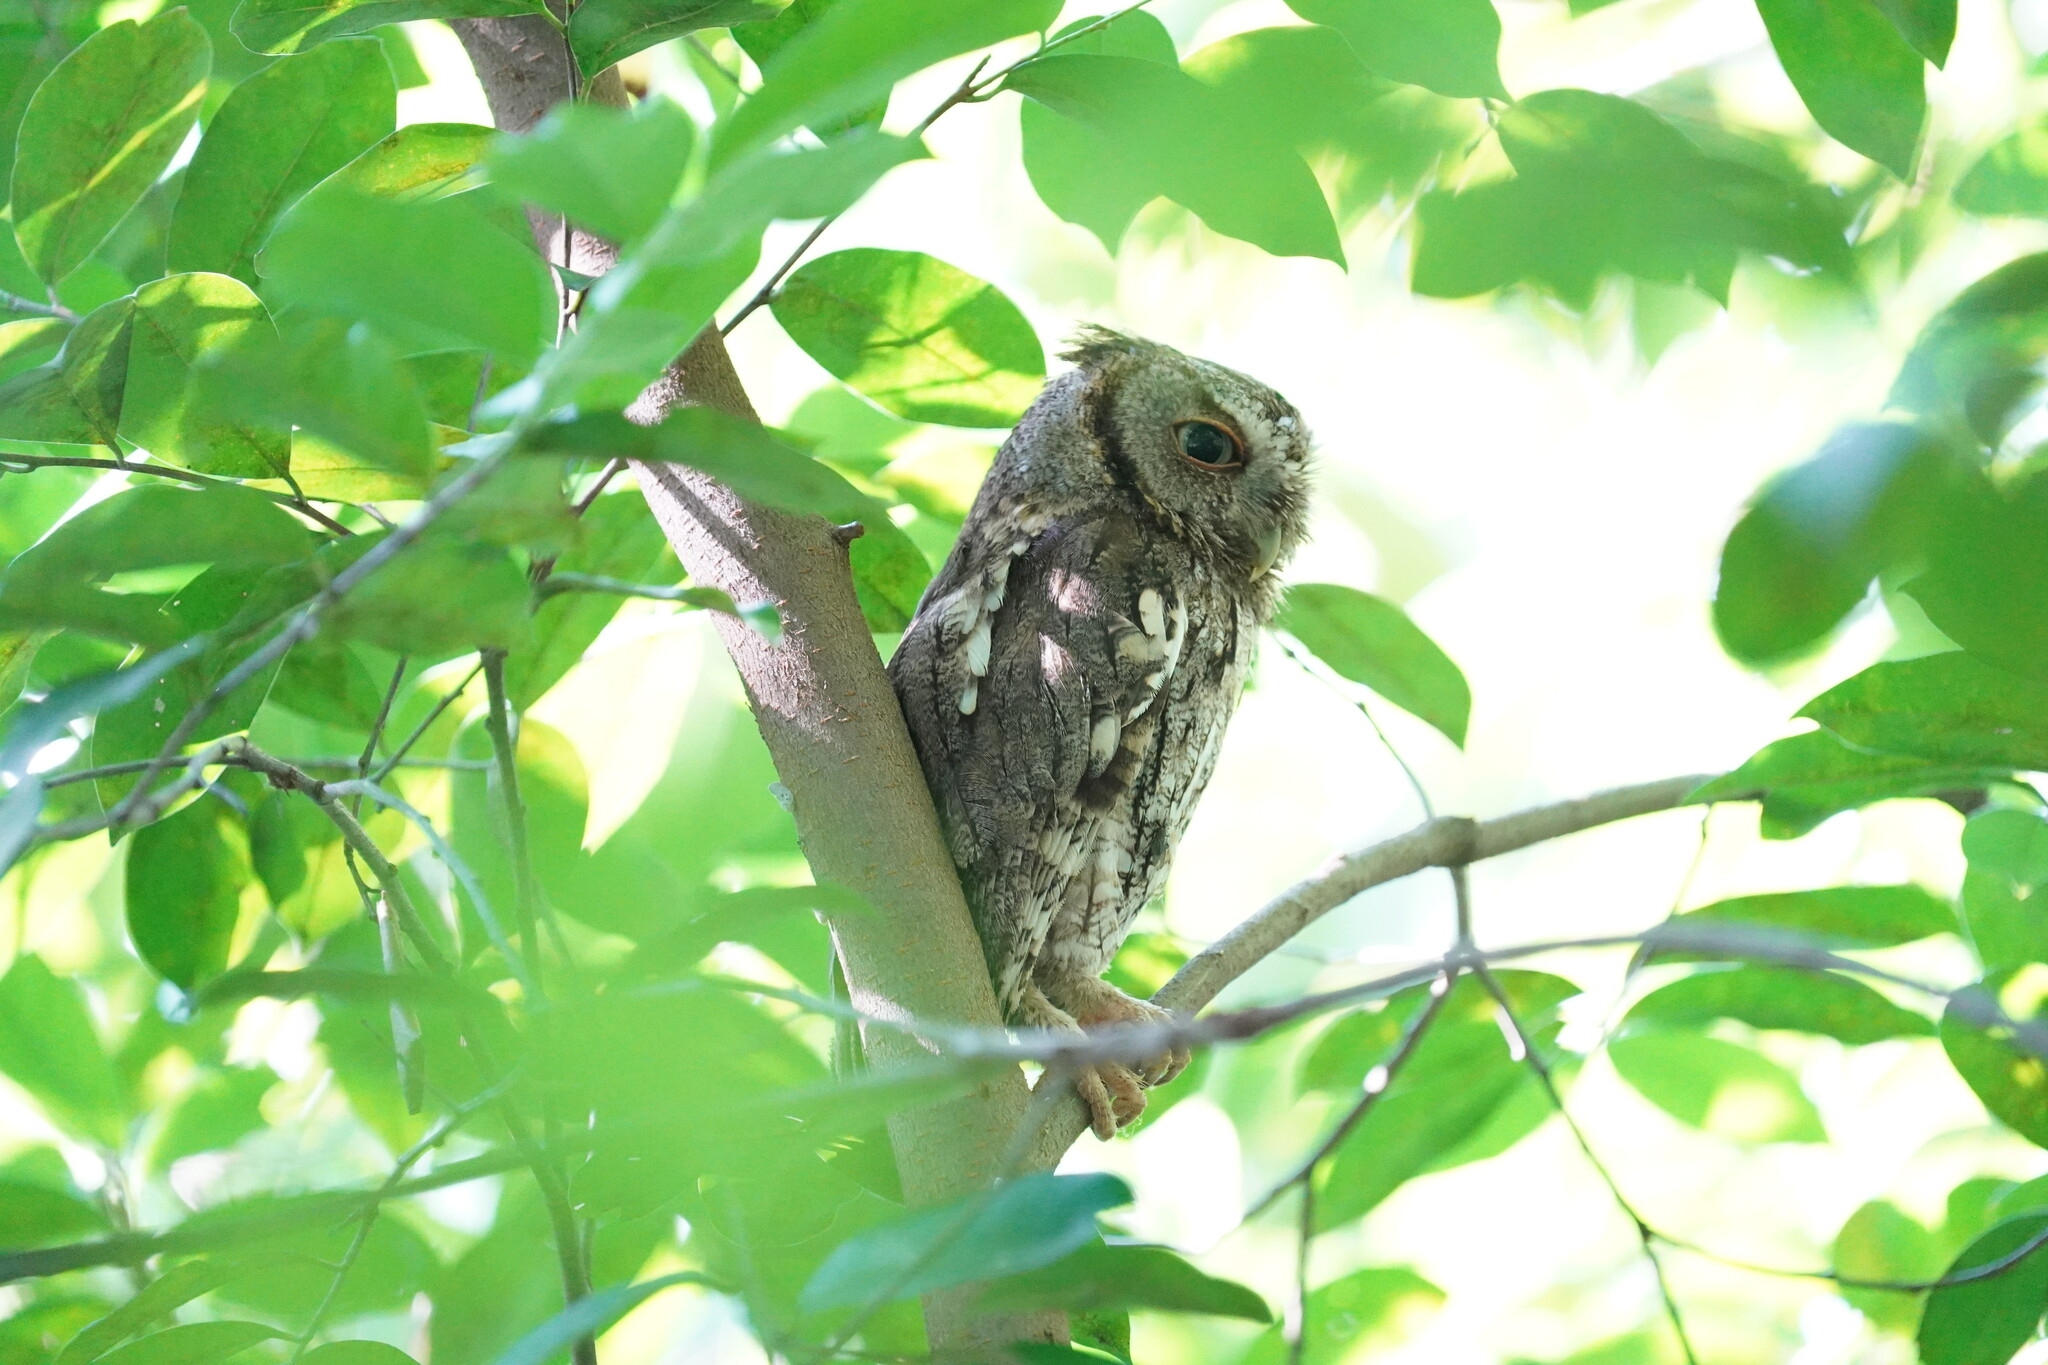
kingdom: Animalia
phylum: Chordata
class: Aves
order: Strigiformes
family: Strigidae
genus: Megascops
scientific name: Megascops asio
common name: Eastern screech-owl
